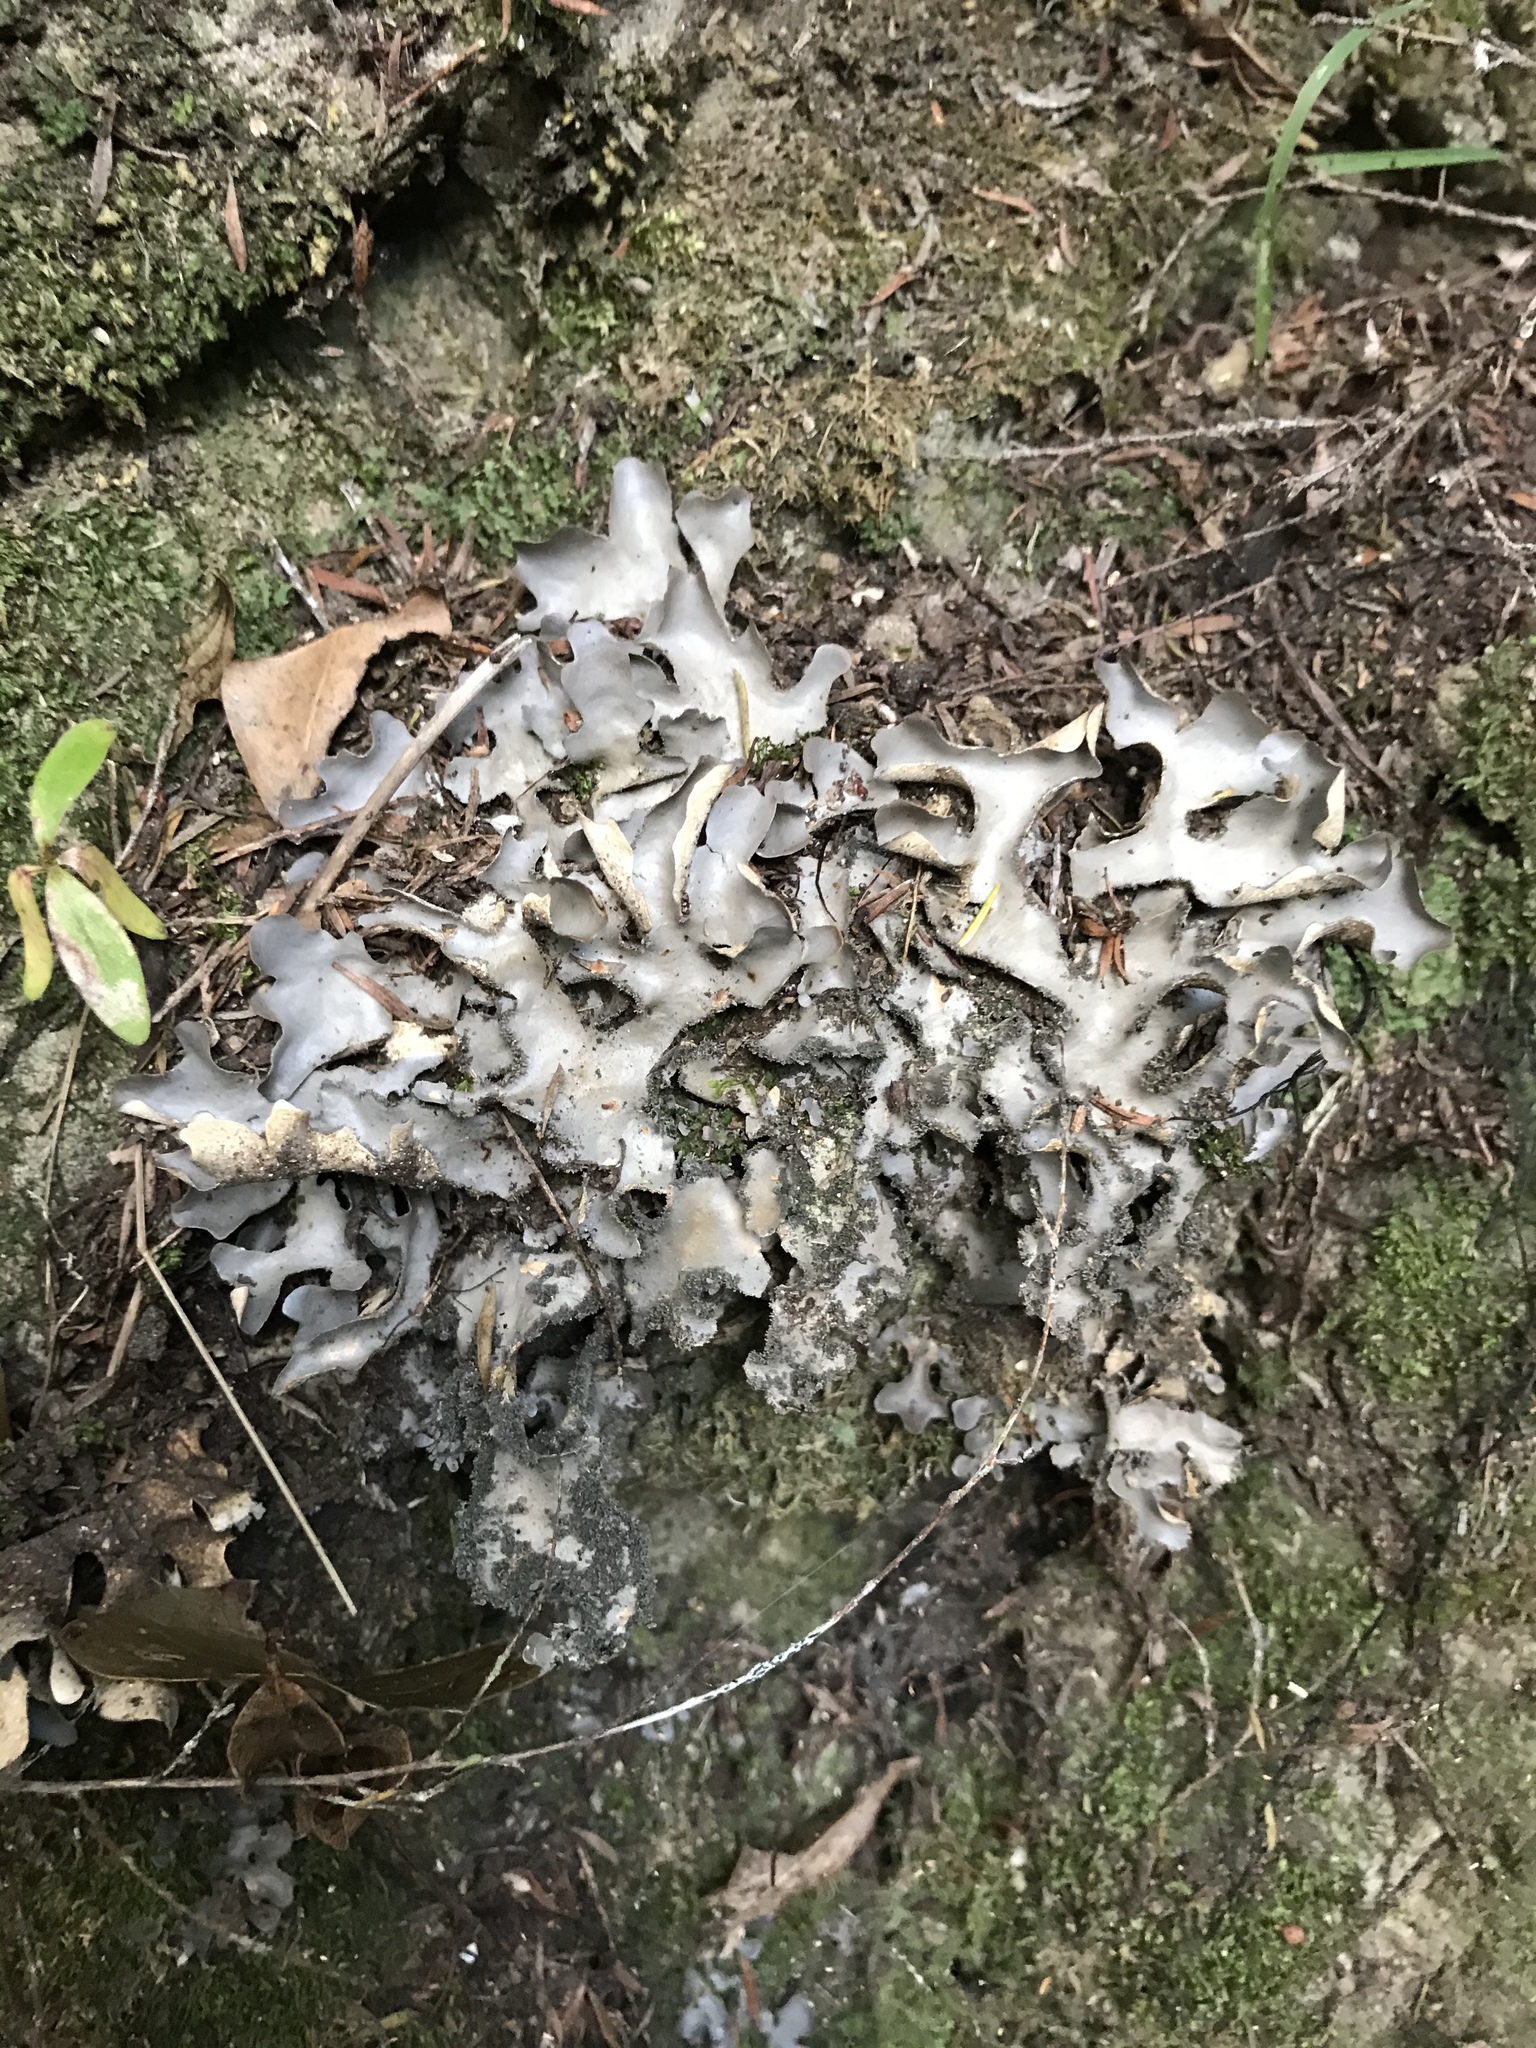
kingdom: Fungi
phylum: Ascomycota
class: Lecanoromycetes
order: Peltigerales
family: Lobariaceae
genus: Pseudocyphellaria
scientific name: Pseudocyphellaria dissimilis
